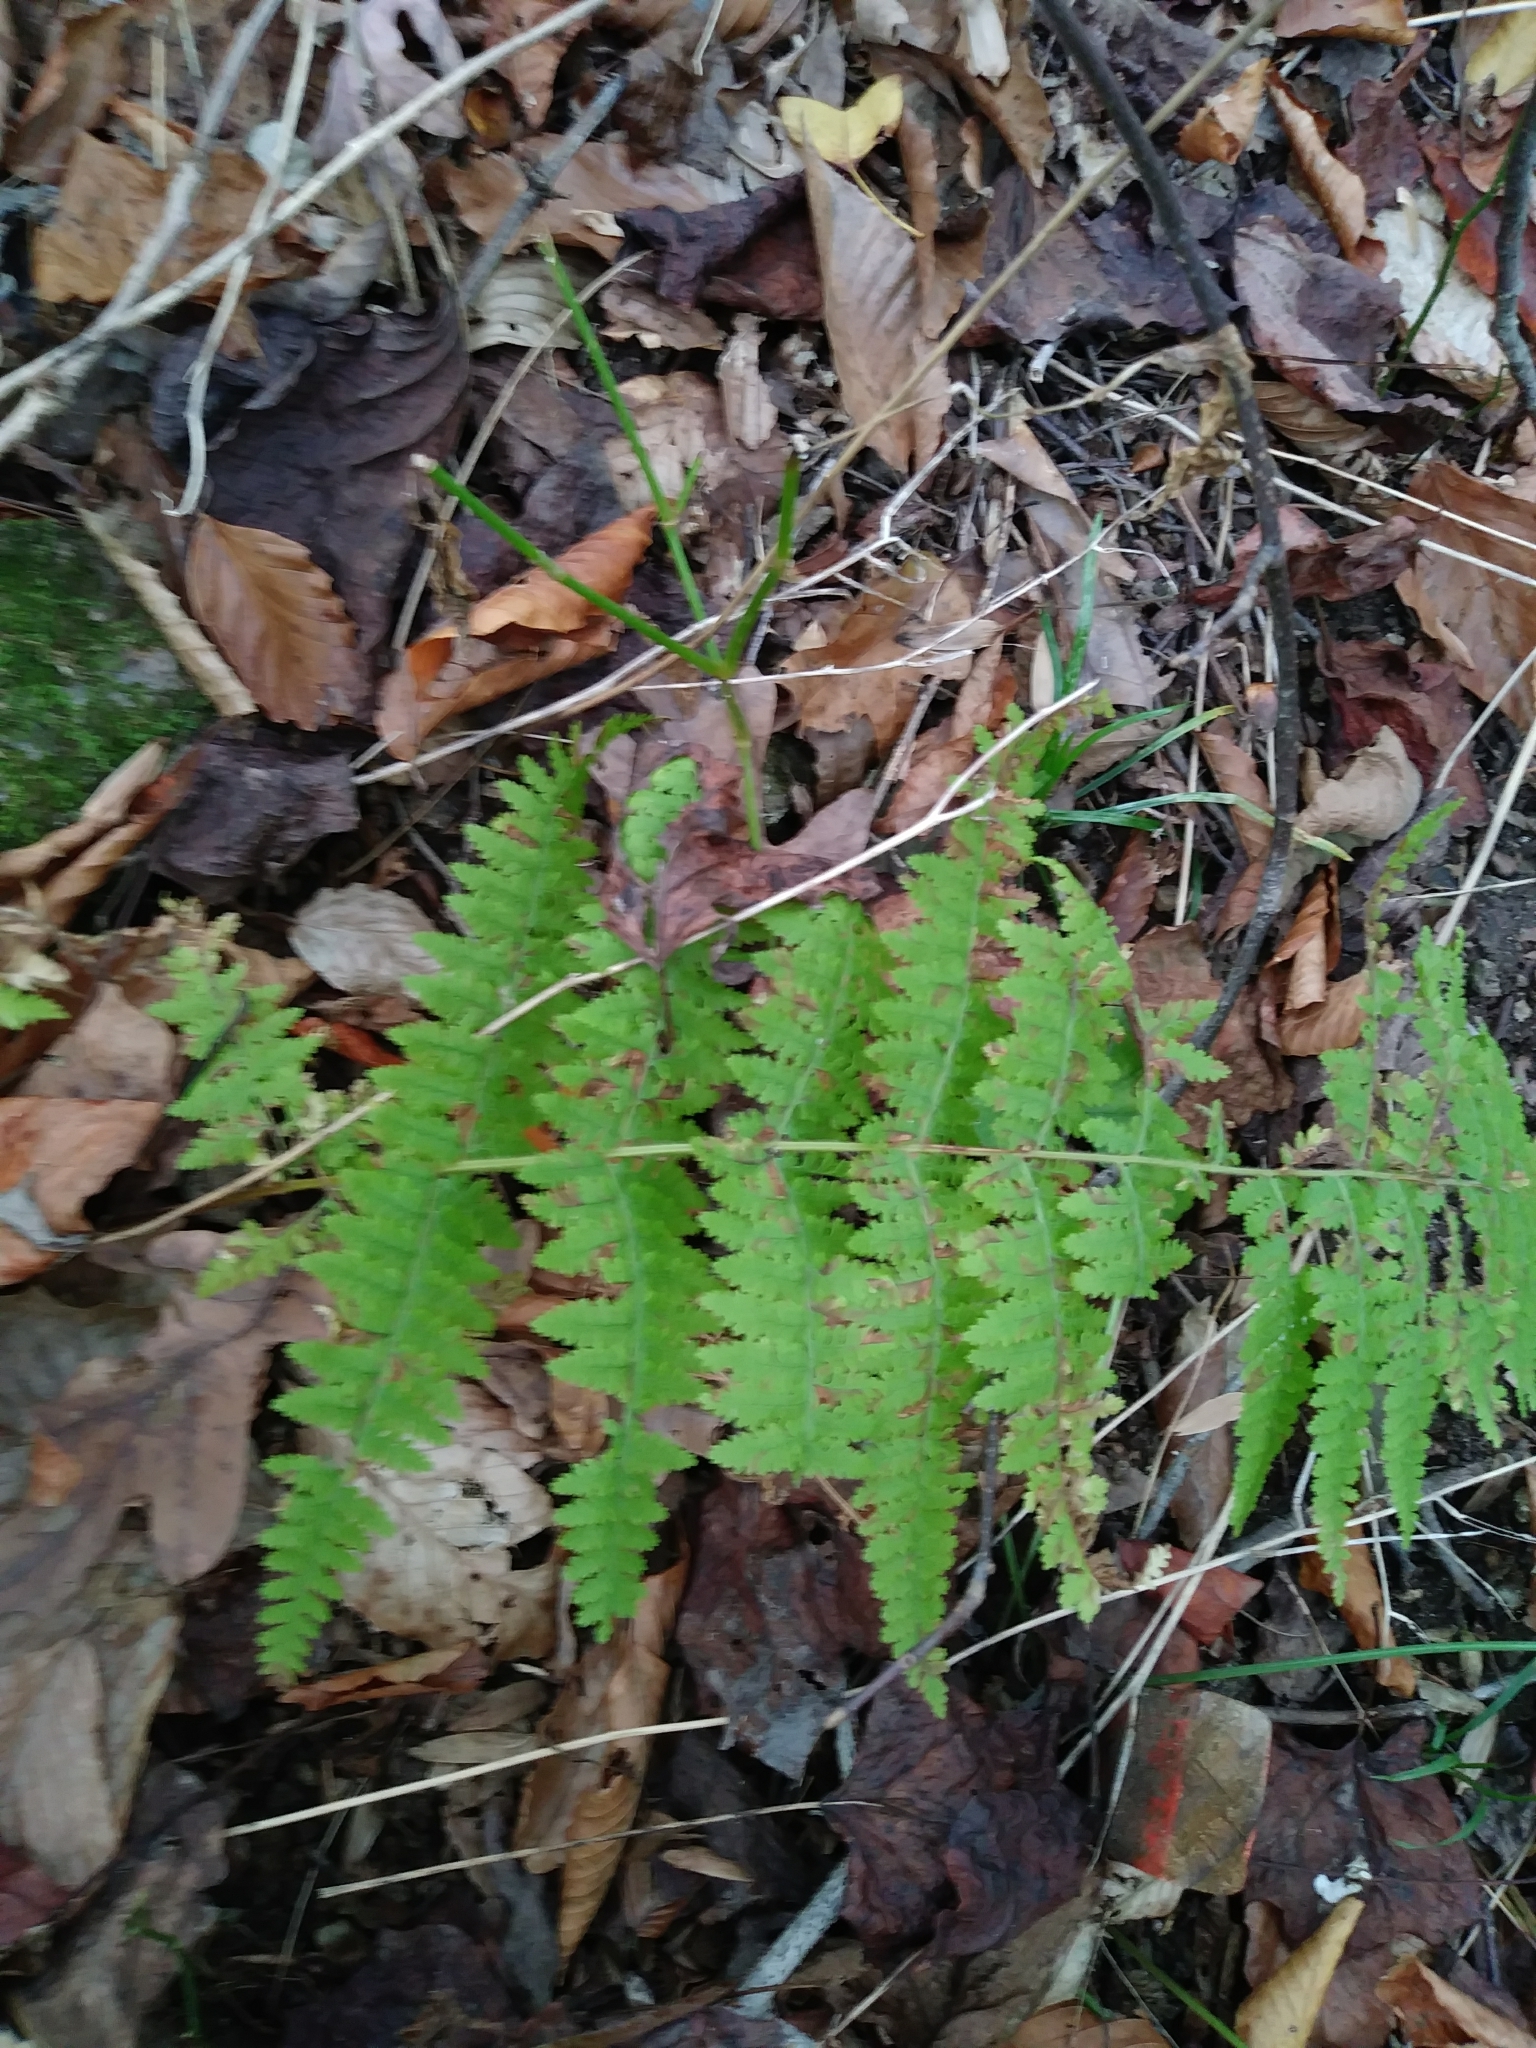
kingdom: Plantae
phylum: Tracheophyta
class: Polypodiopsida
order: Polypodiales
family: Dennstaedtiaceae
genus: Sitobolium
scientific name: Sitobolium punctilobum
